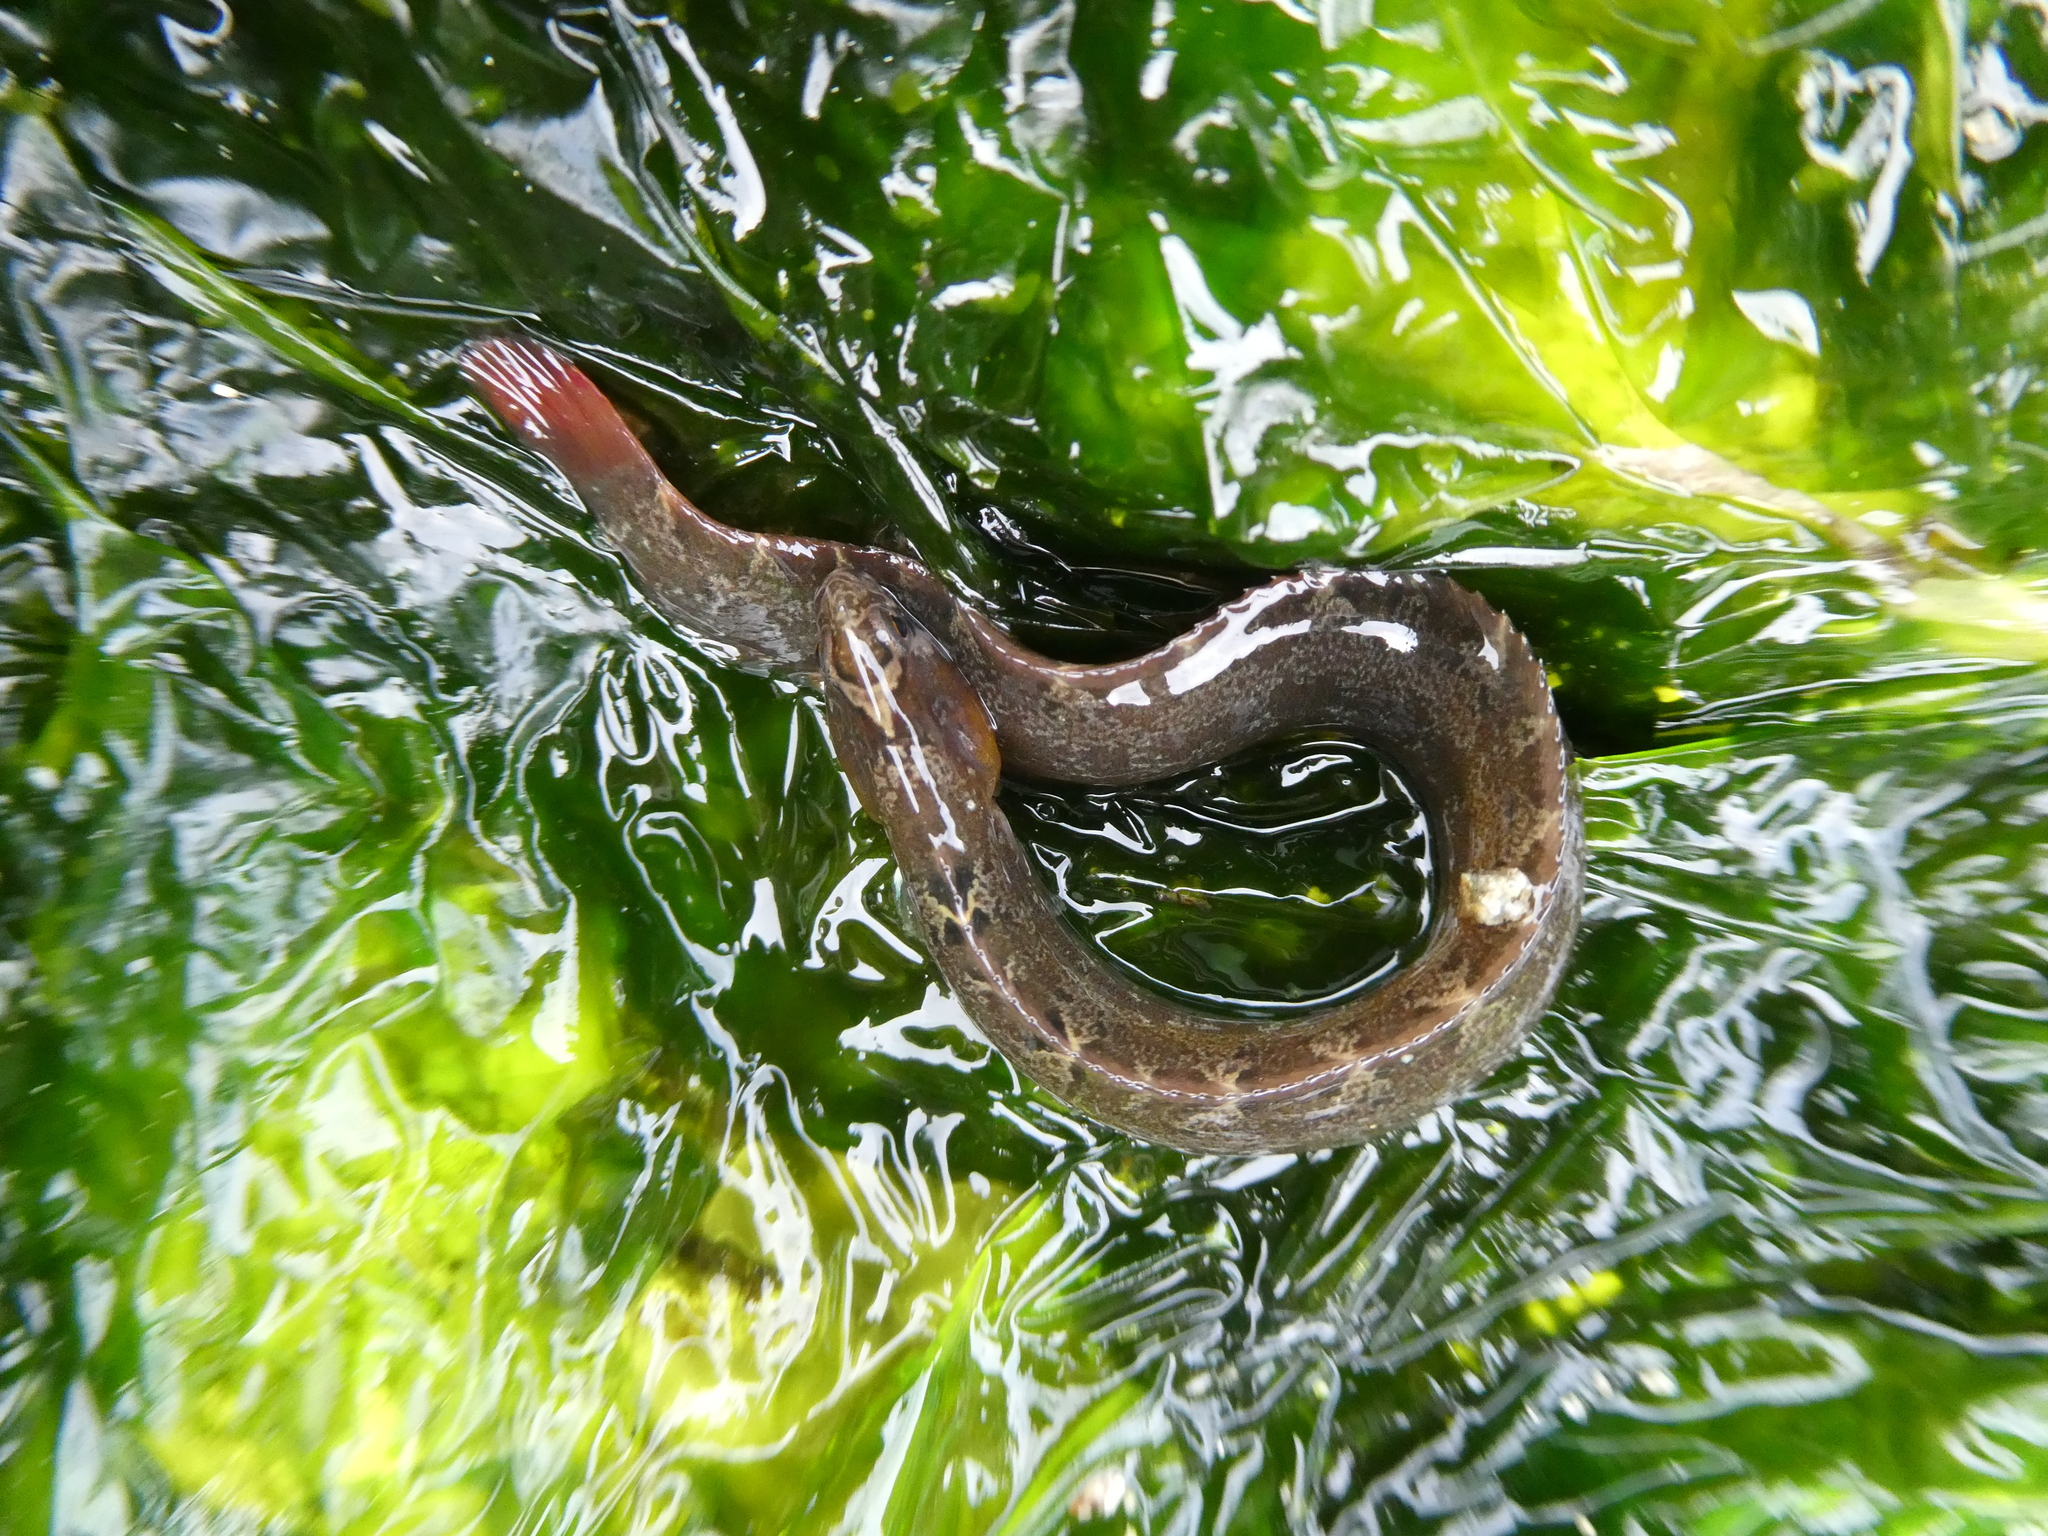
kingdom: Animalia
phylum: Chordata
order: Perciformes
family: Pholidae
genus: Pholis
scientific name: Pholis ornata
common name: Saddleback gunnel
